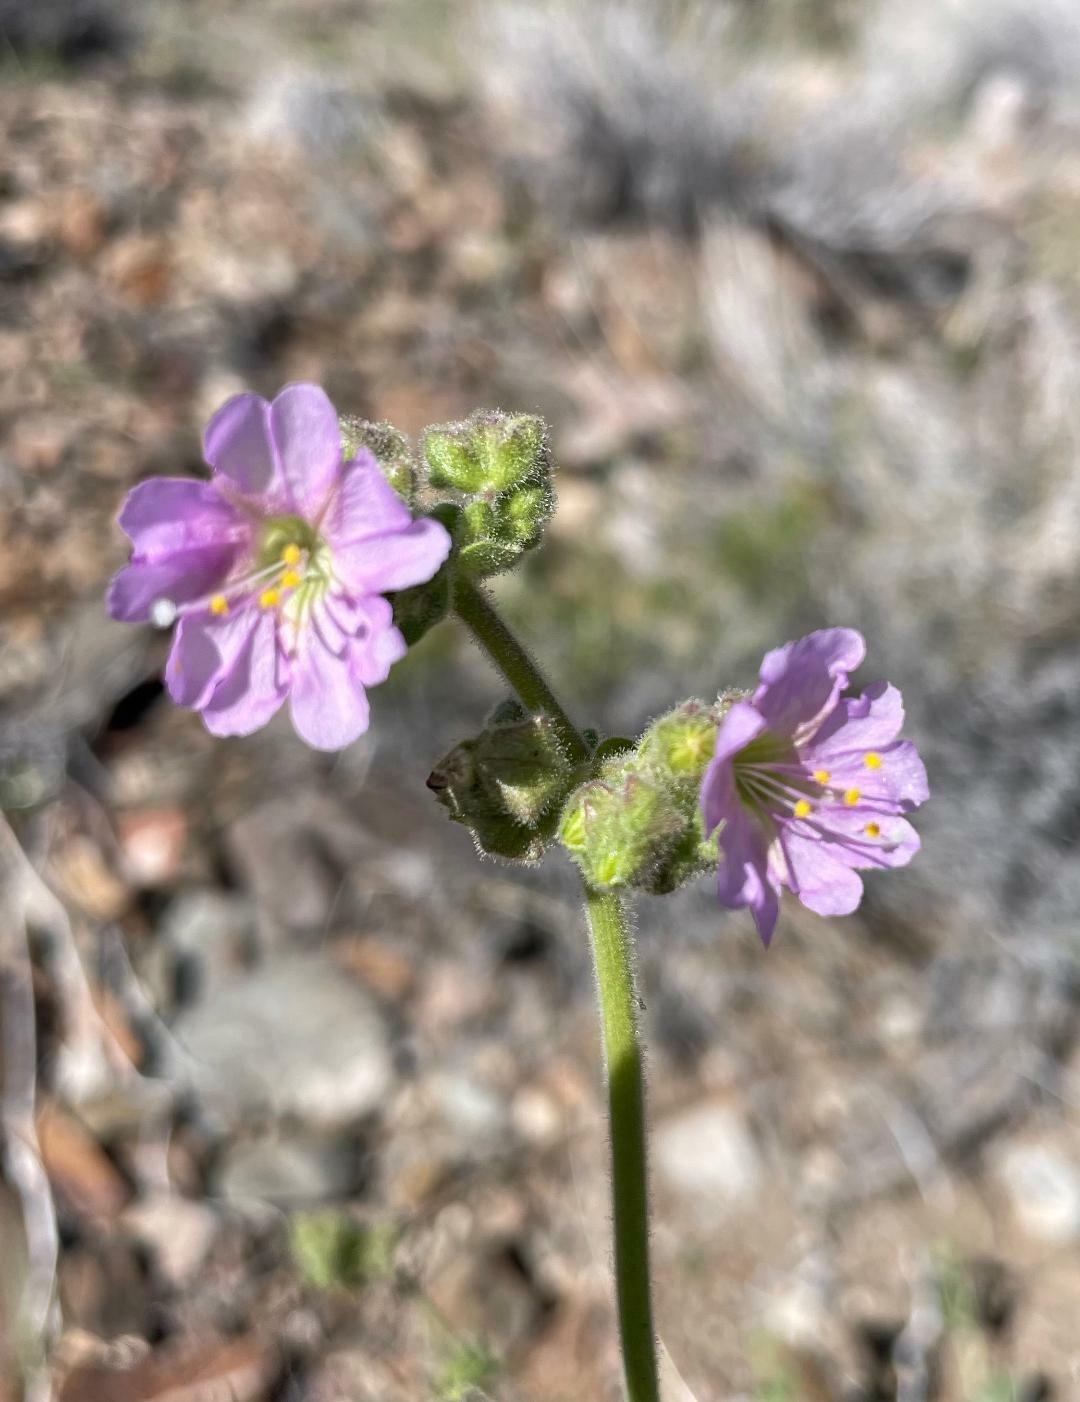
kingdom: Plantae
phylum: Tracheophyta
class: Magnoliopsida
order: Caryophyllales
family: Nyctaginaceae
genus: Mirabilis
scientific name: Mirabilis comata
